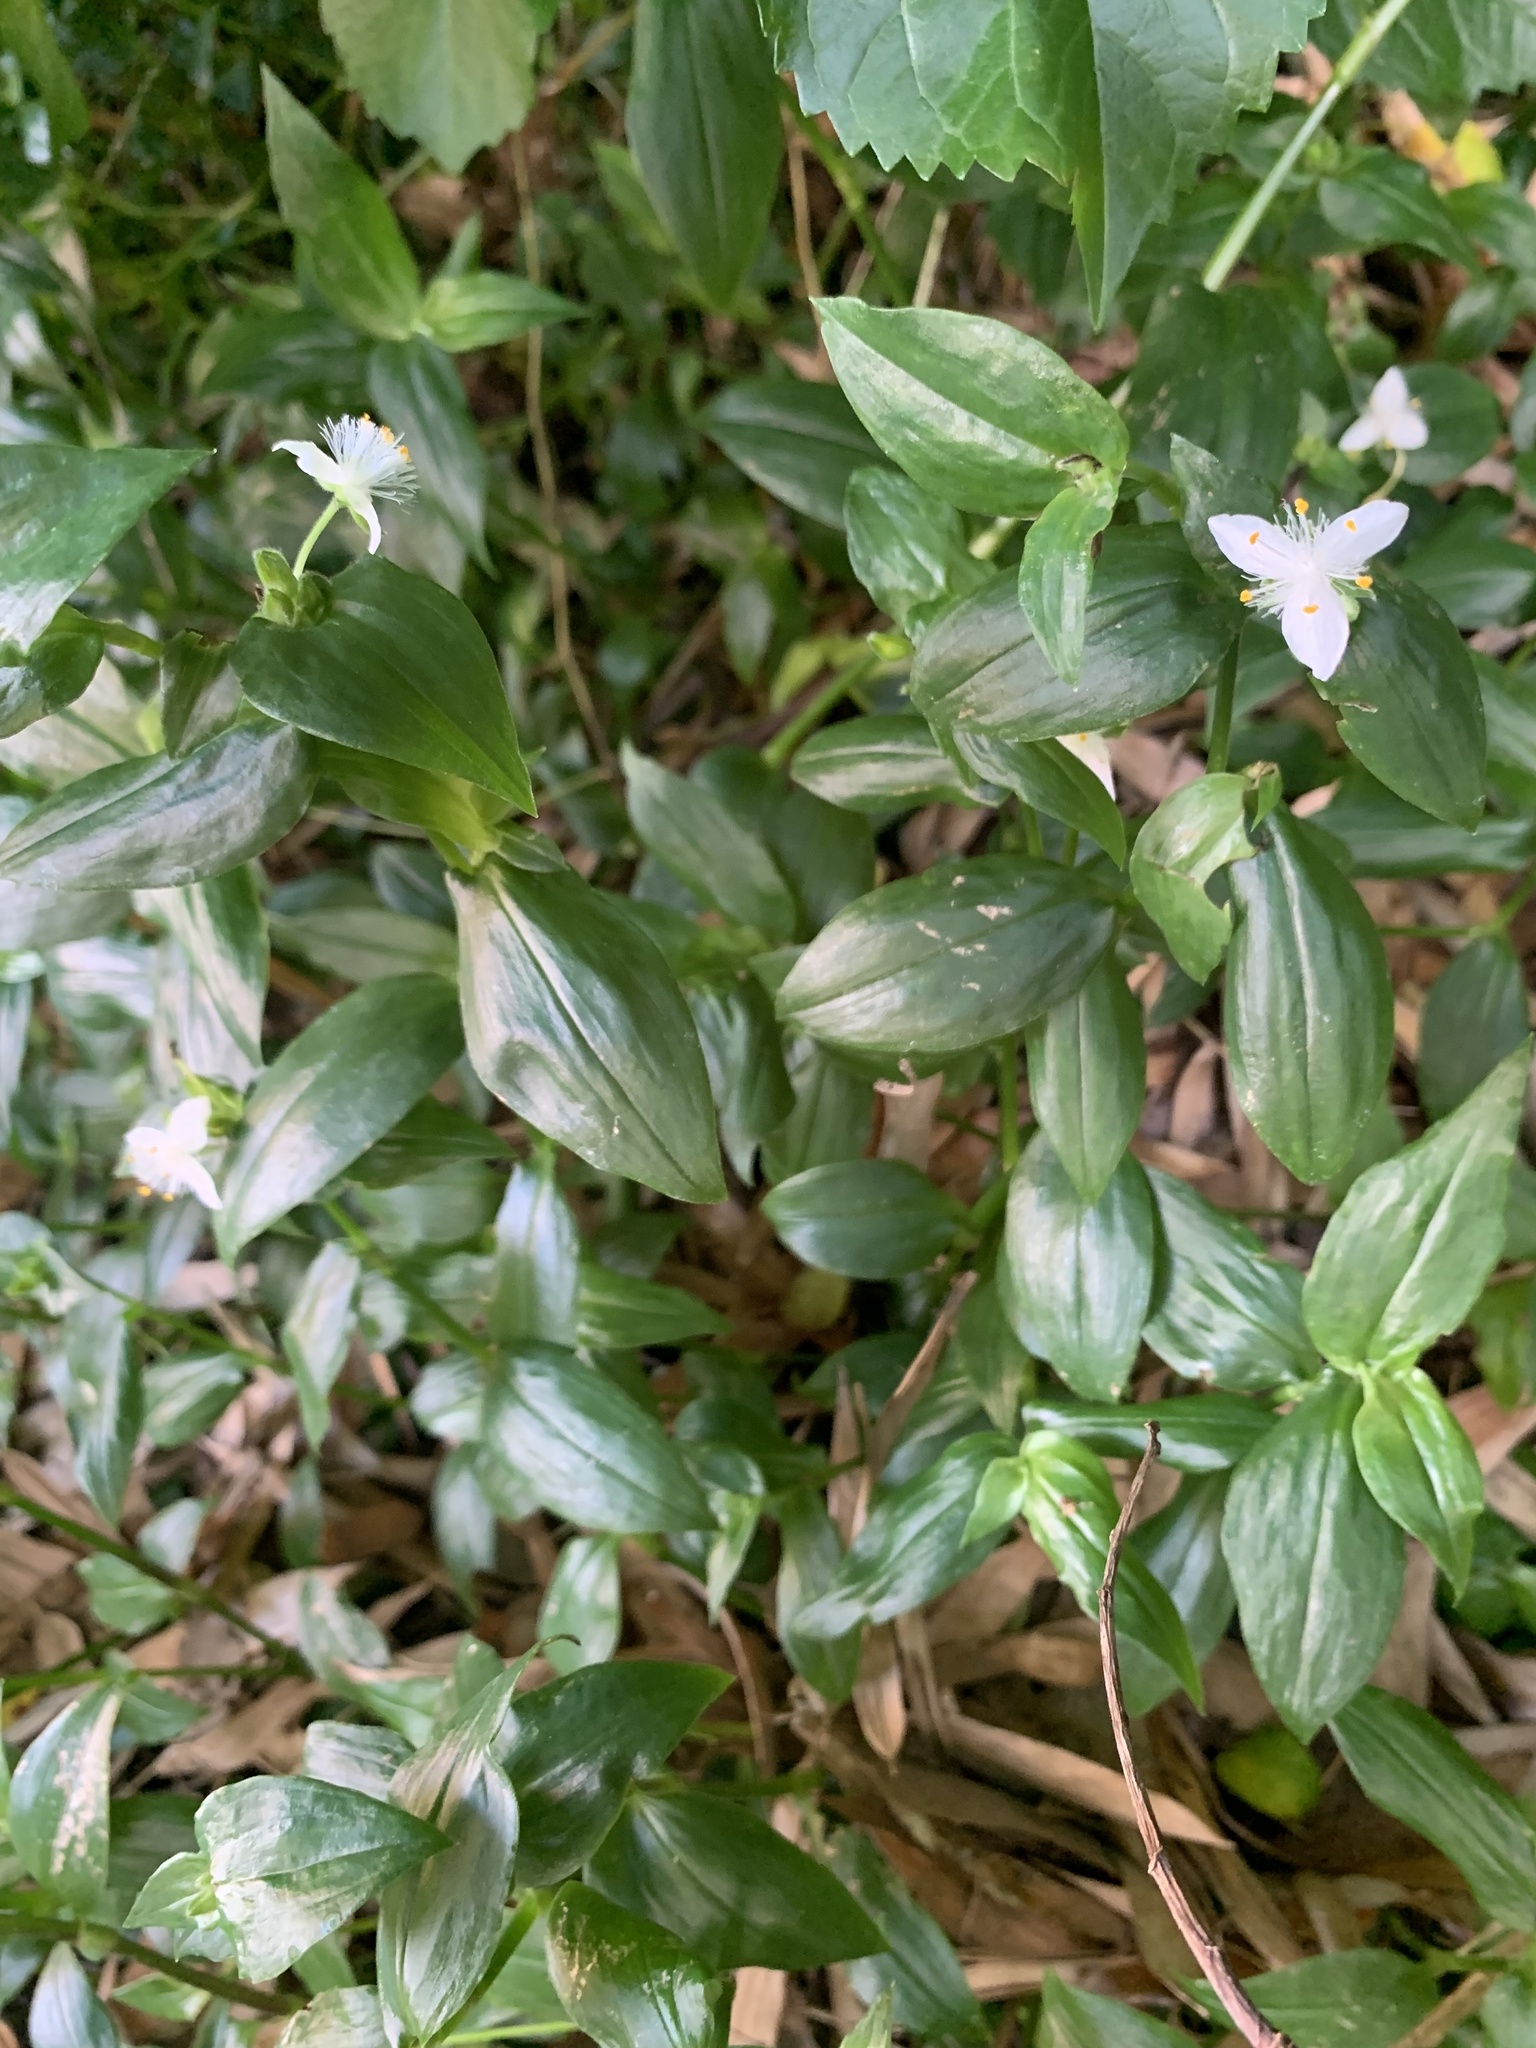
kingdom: Plantae
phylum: Tracheophyta
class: Liliopsida
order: Commelinales
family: Commelinaceae
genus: Tradescantia
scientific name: Tradescantia fluminensis
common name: Wandering-jew
